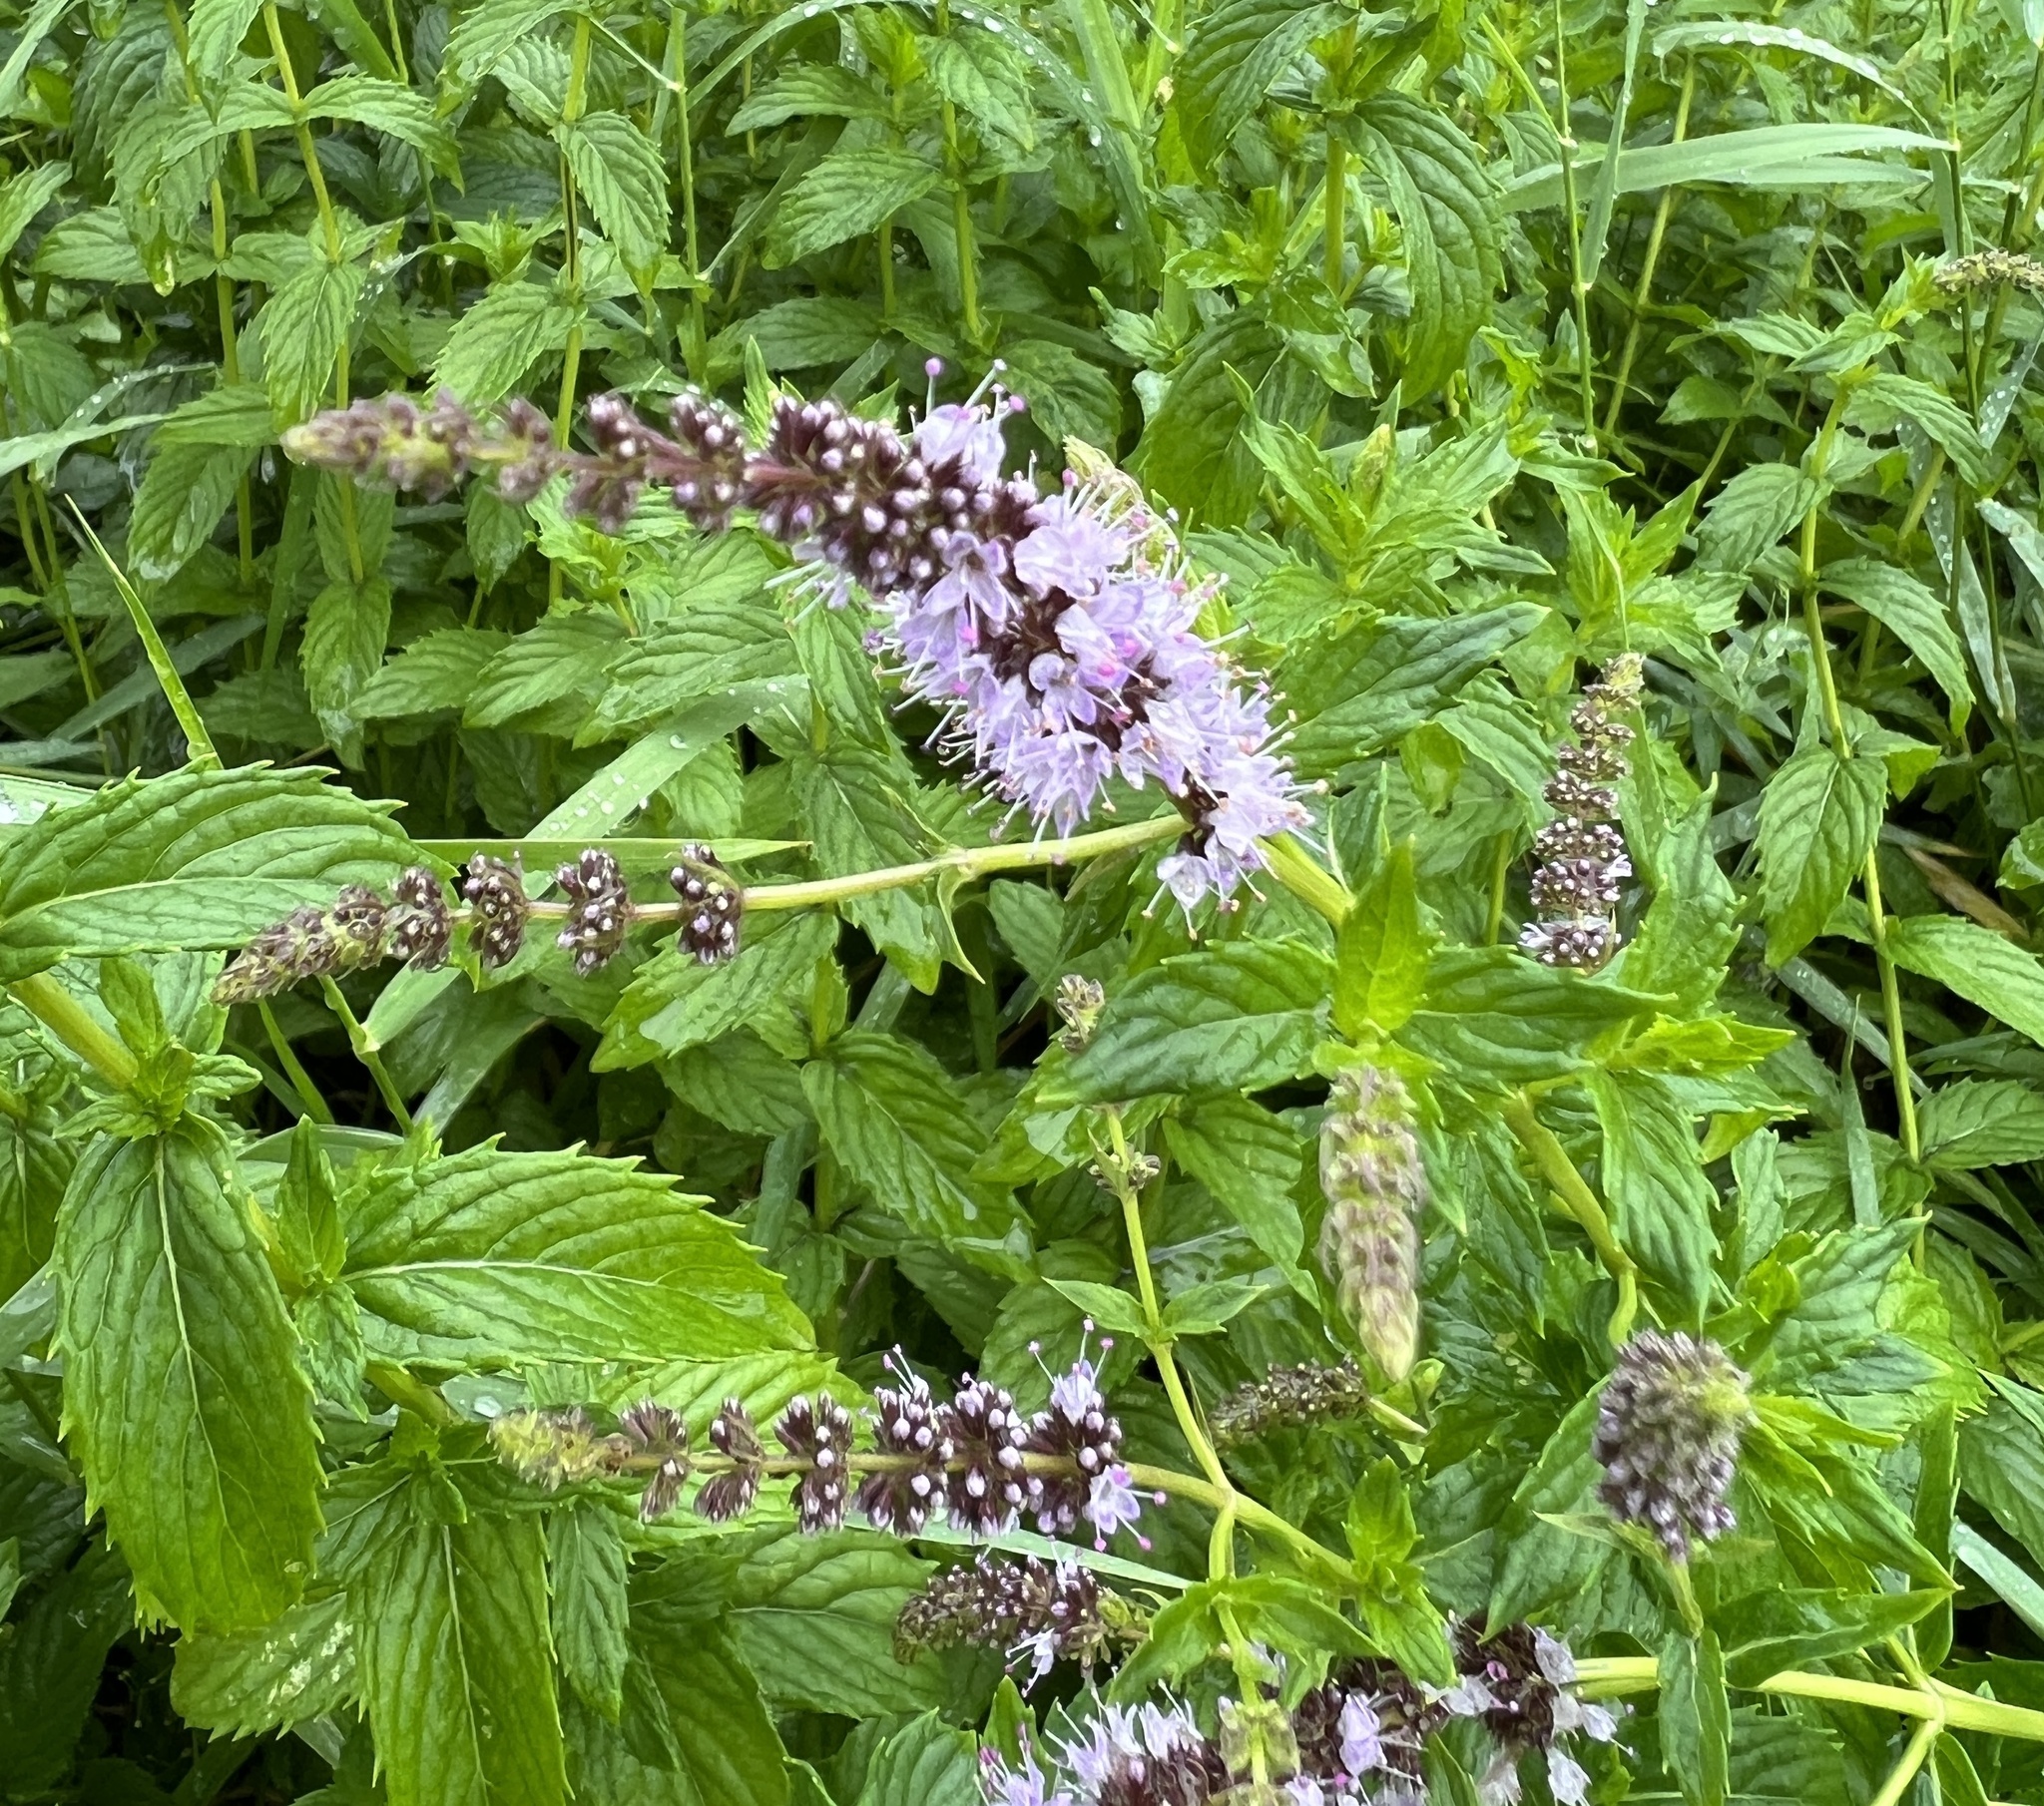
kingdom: Plantae
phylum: Tracheophyta
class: Magnoliopsida
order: Lamiales
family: Lamiaceae
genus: Mentha
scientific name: Mentha spicata
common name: Spearmint
